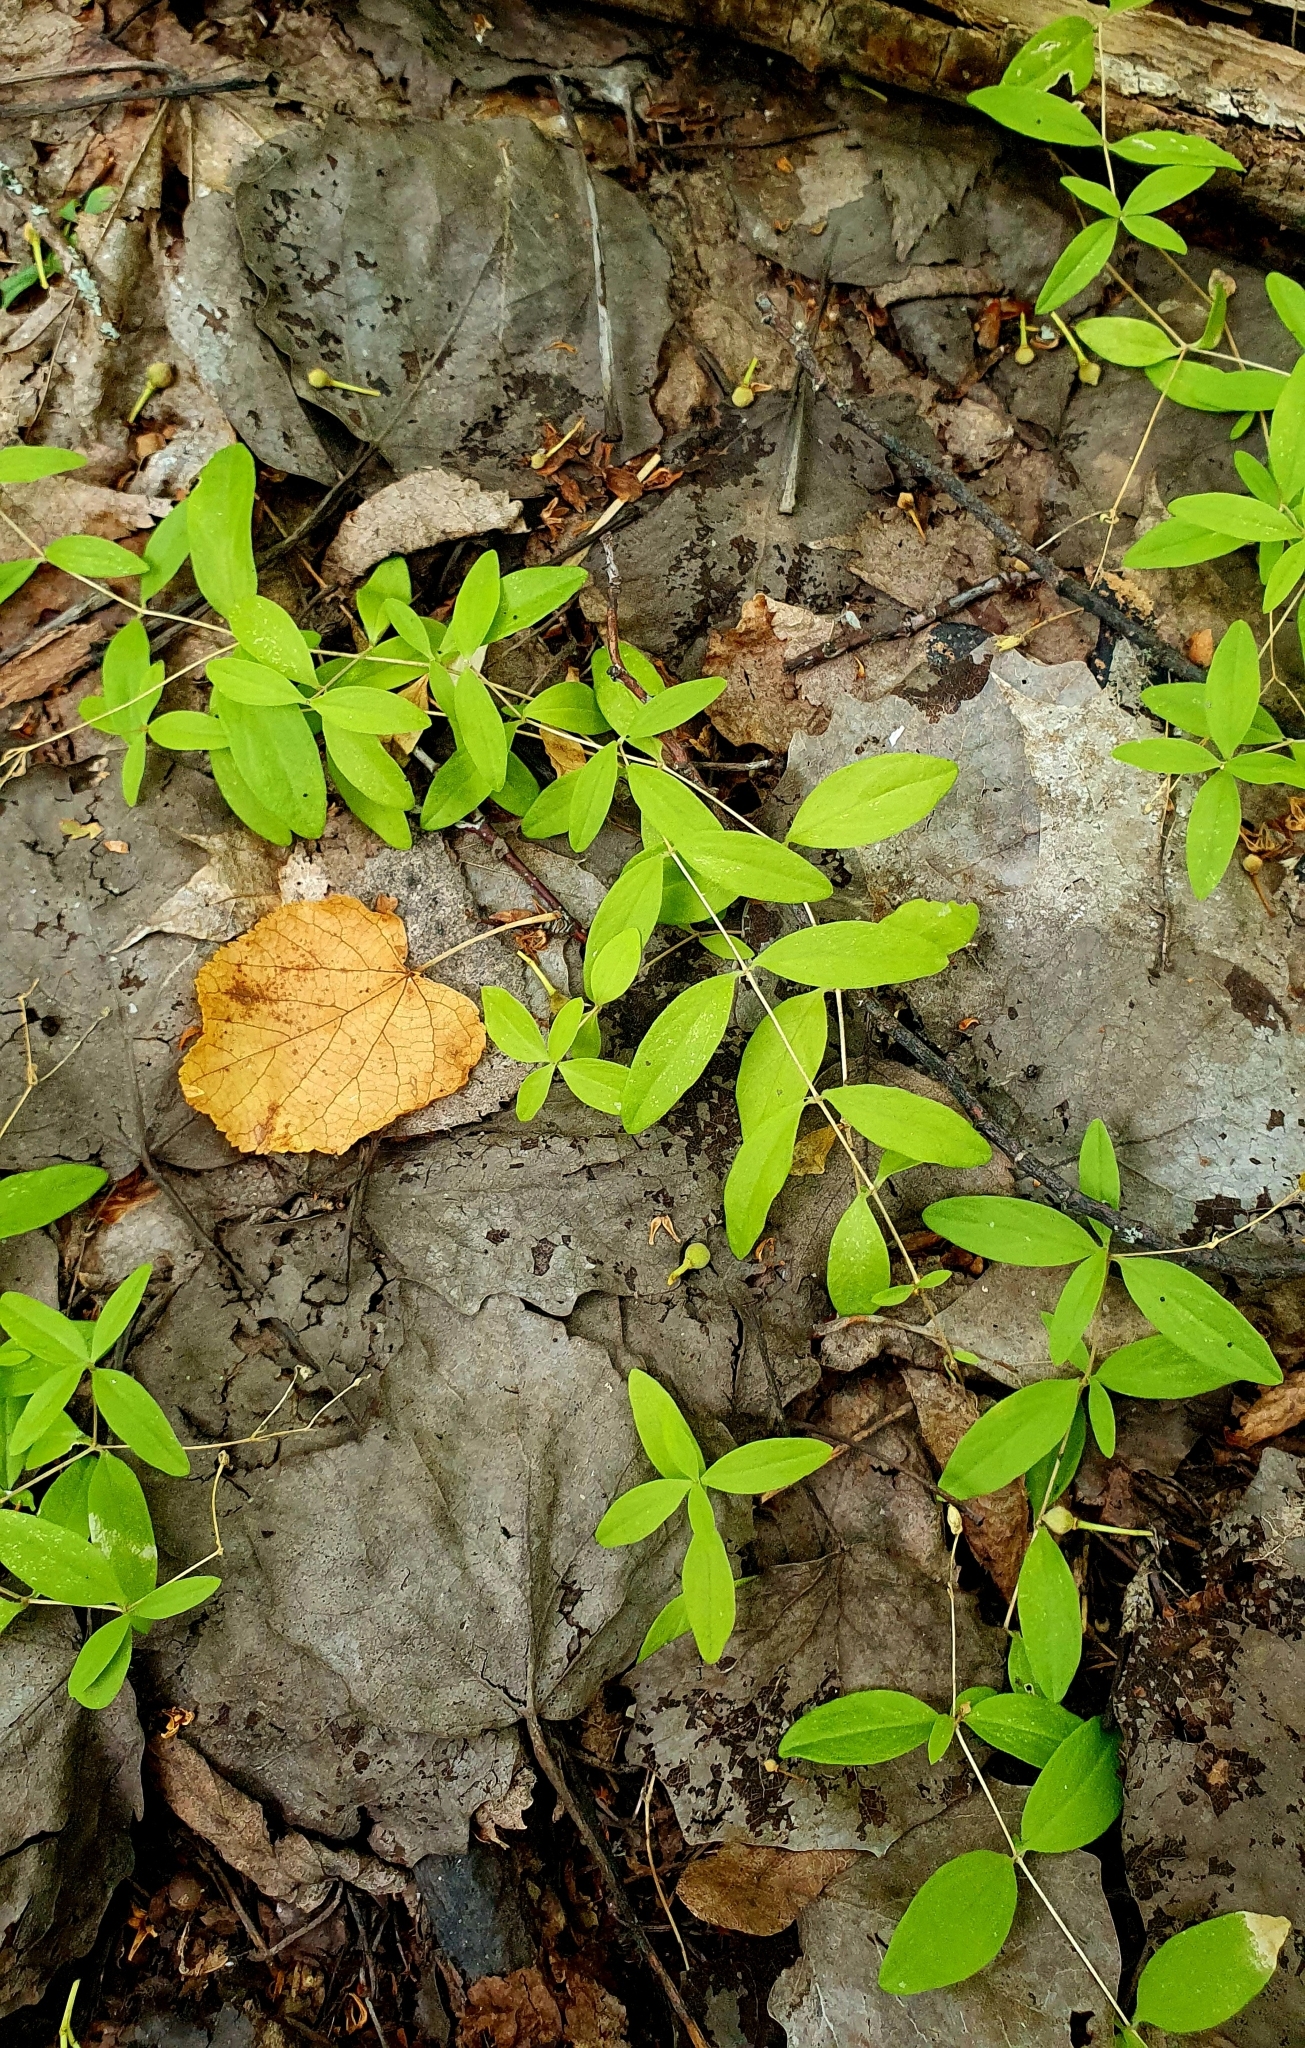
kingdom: Plantae
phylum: Tracheophyta
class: Magnoliopsida
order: Caryophyllales
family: Caryophyllaceae
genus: Moehringia
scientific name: Moehringia lateriflora
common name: Blunt-leaved sandwort
